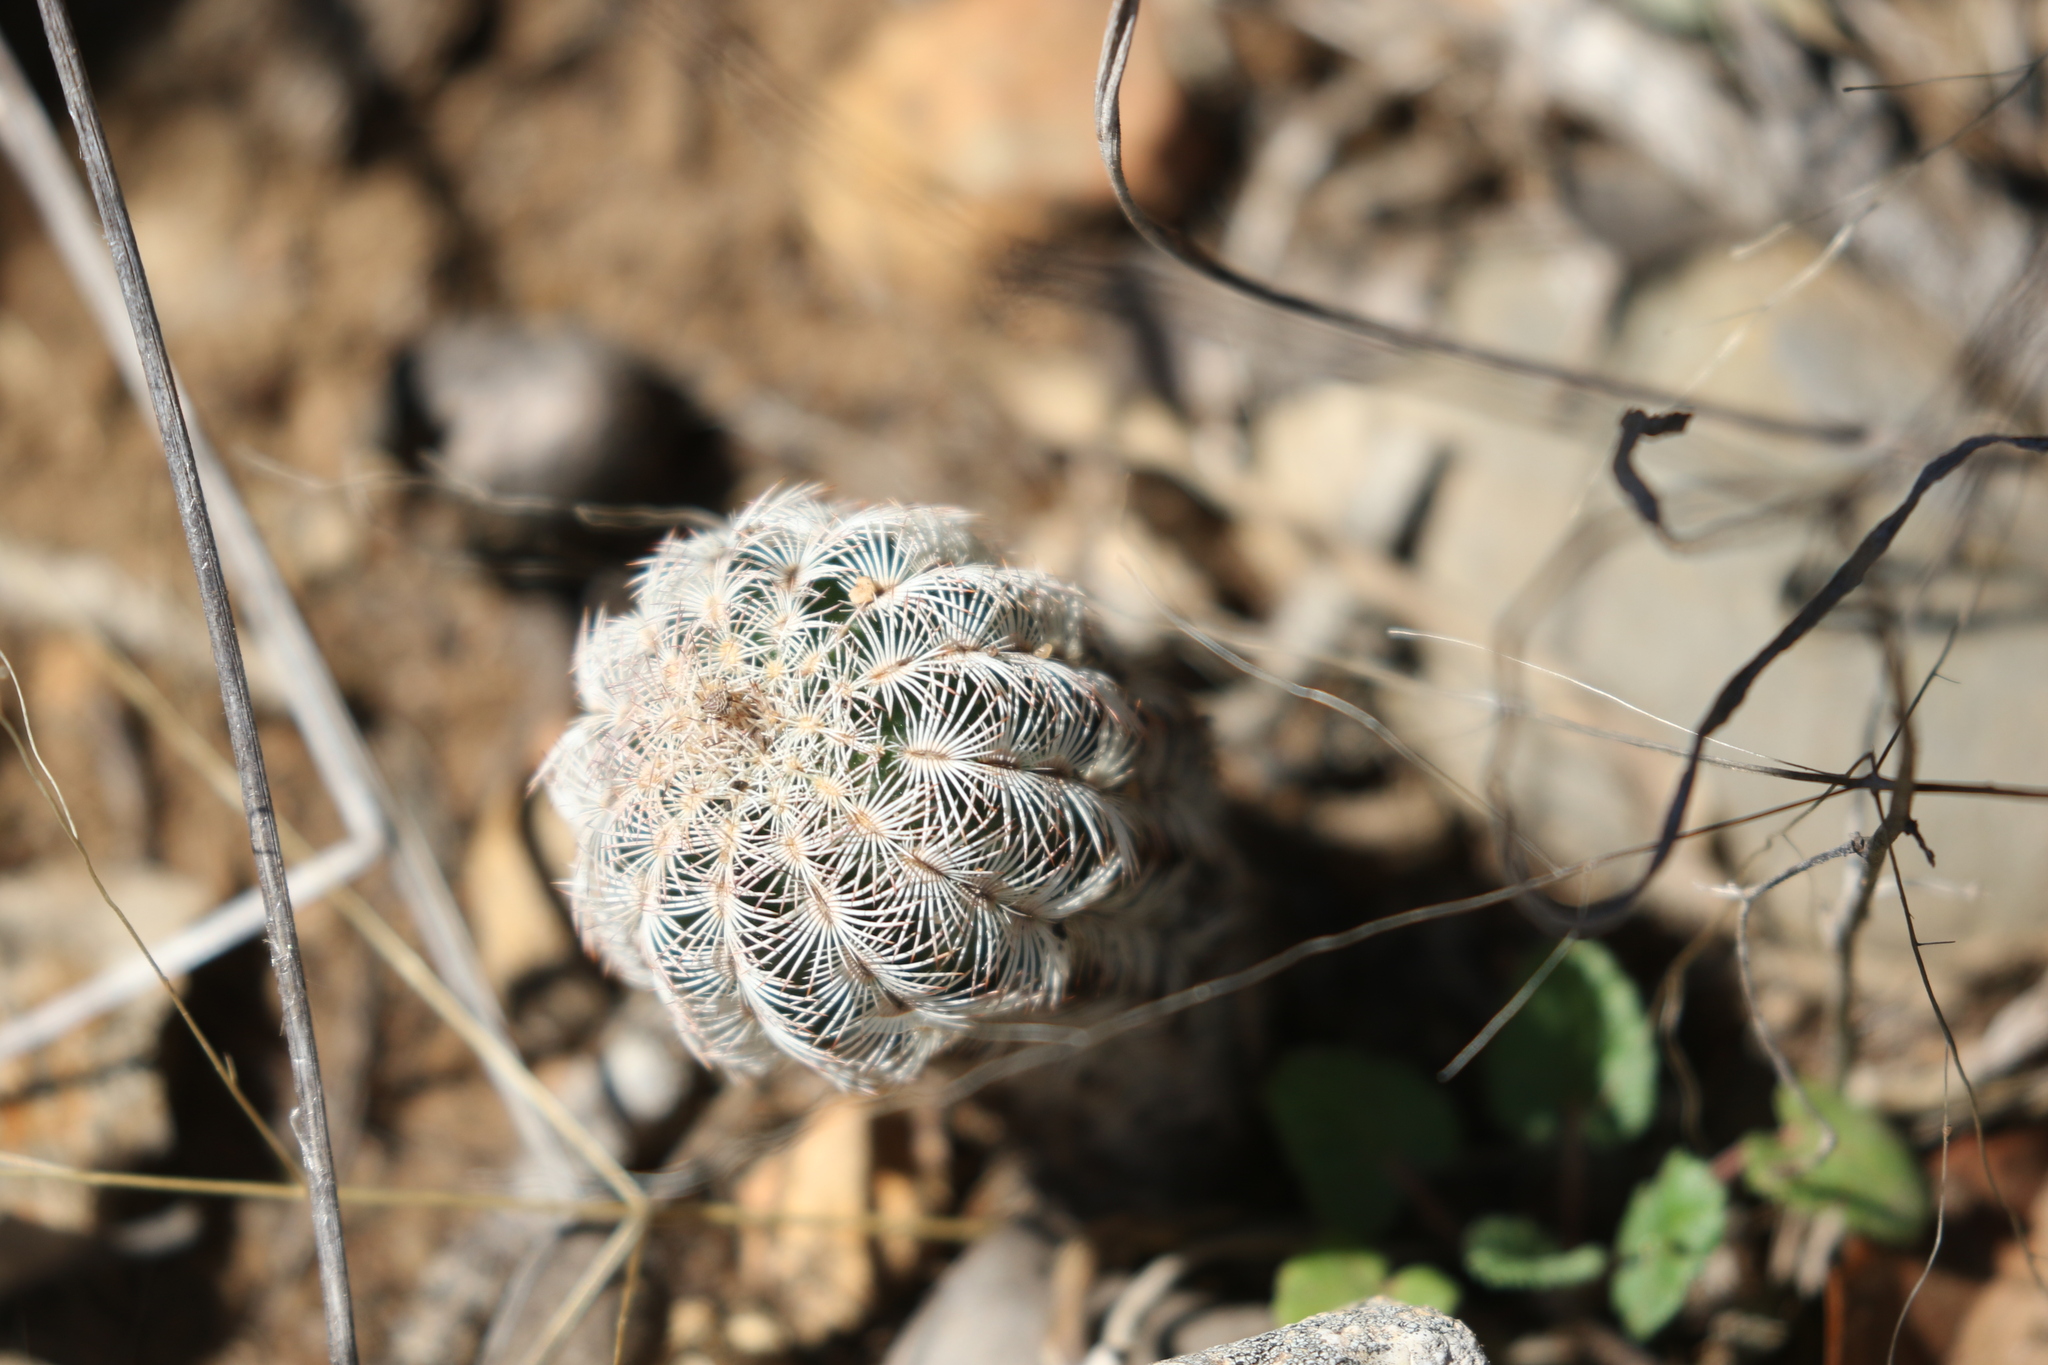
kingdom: Plantae
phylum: Tracheophyta
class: Magnoliopsida
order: Caryophyllales
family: Cactaceae
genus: Echinocereus
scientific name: Echinocereus reichenbachii
